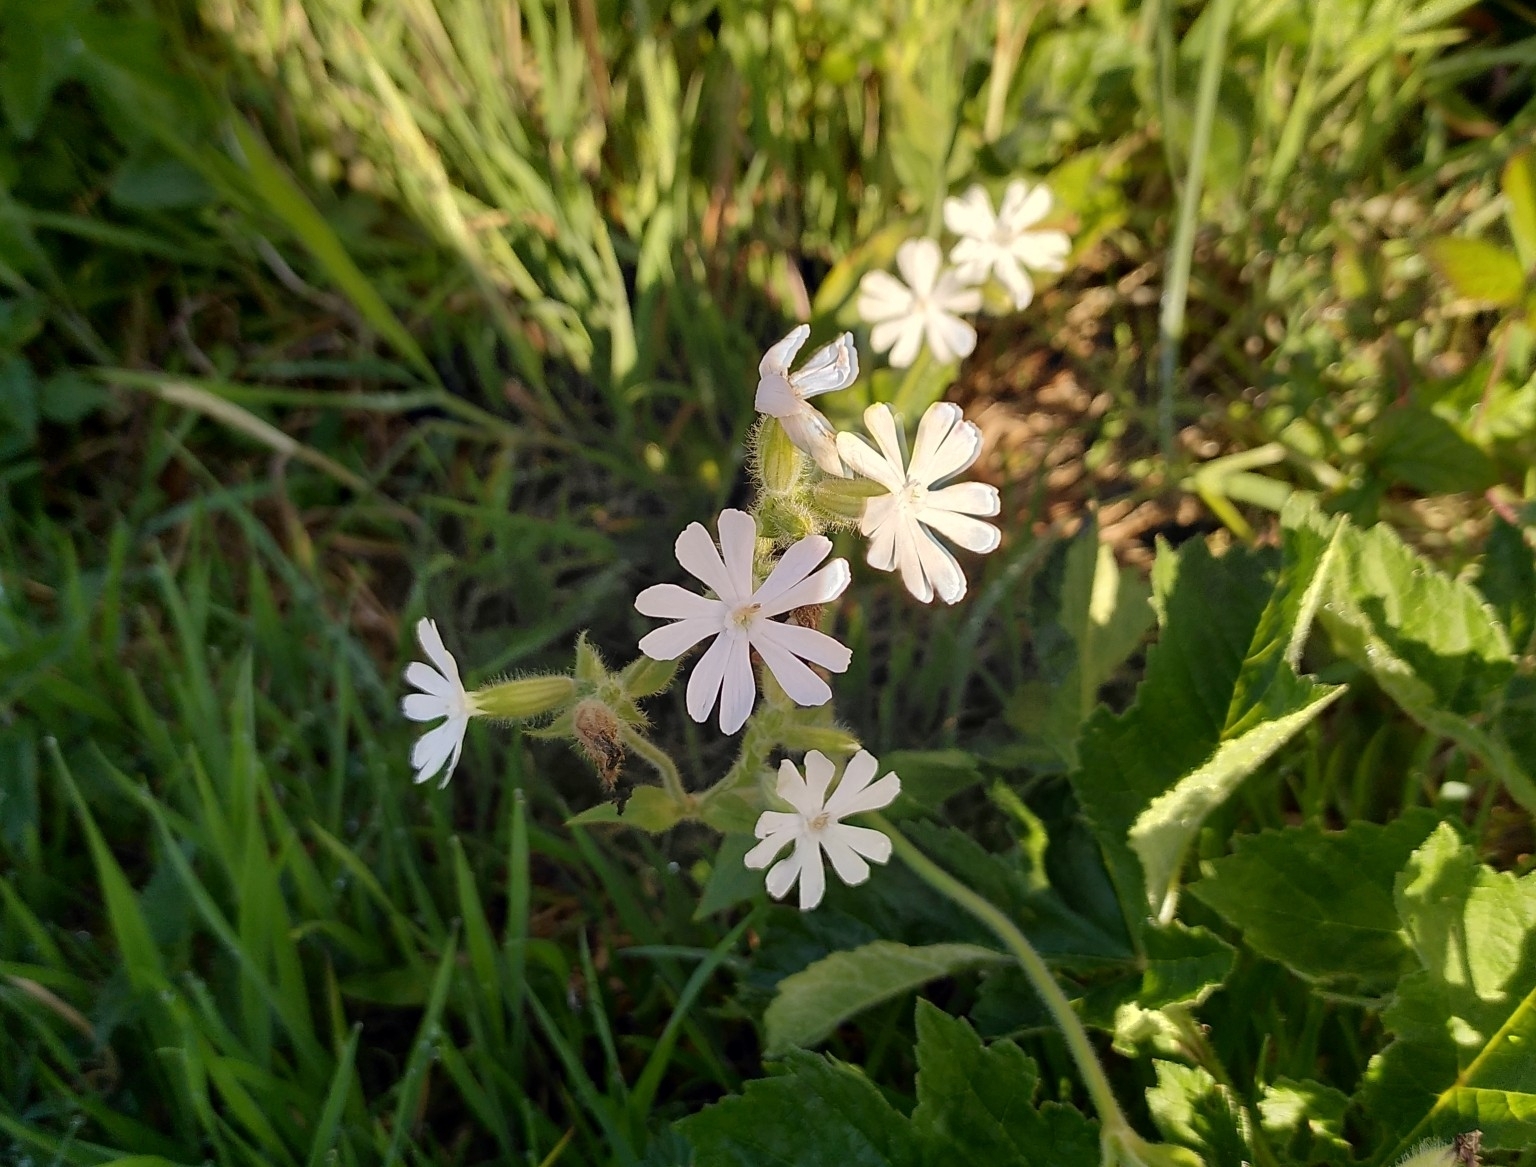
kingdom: Plantae
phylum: Tracheophyta
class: Magnoliopsida
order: Caryophyllales
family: Caryophyllaceae
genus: Silene
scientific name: Silene latifolia
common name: White campion
